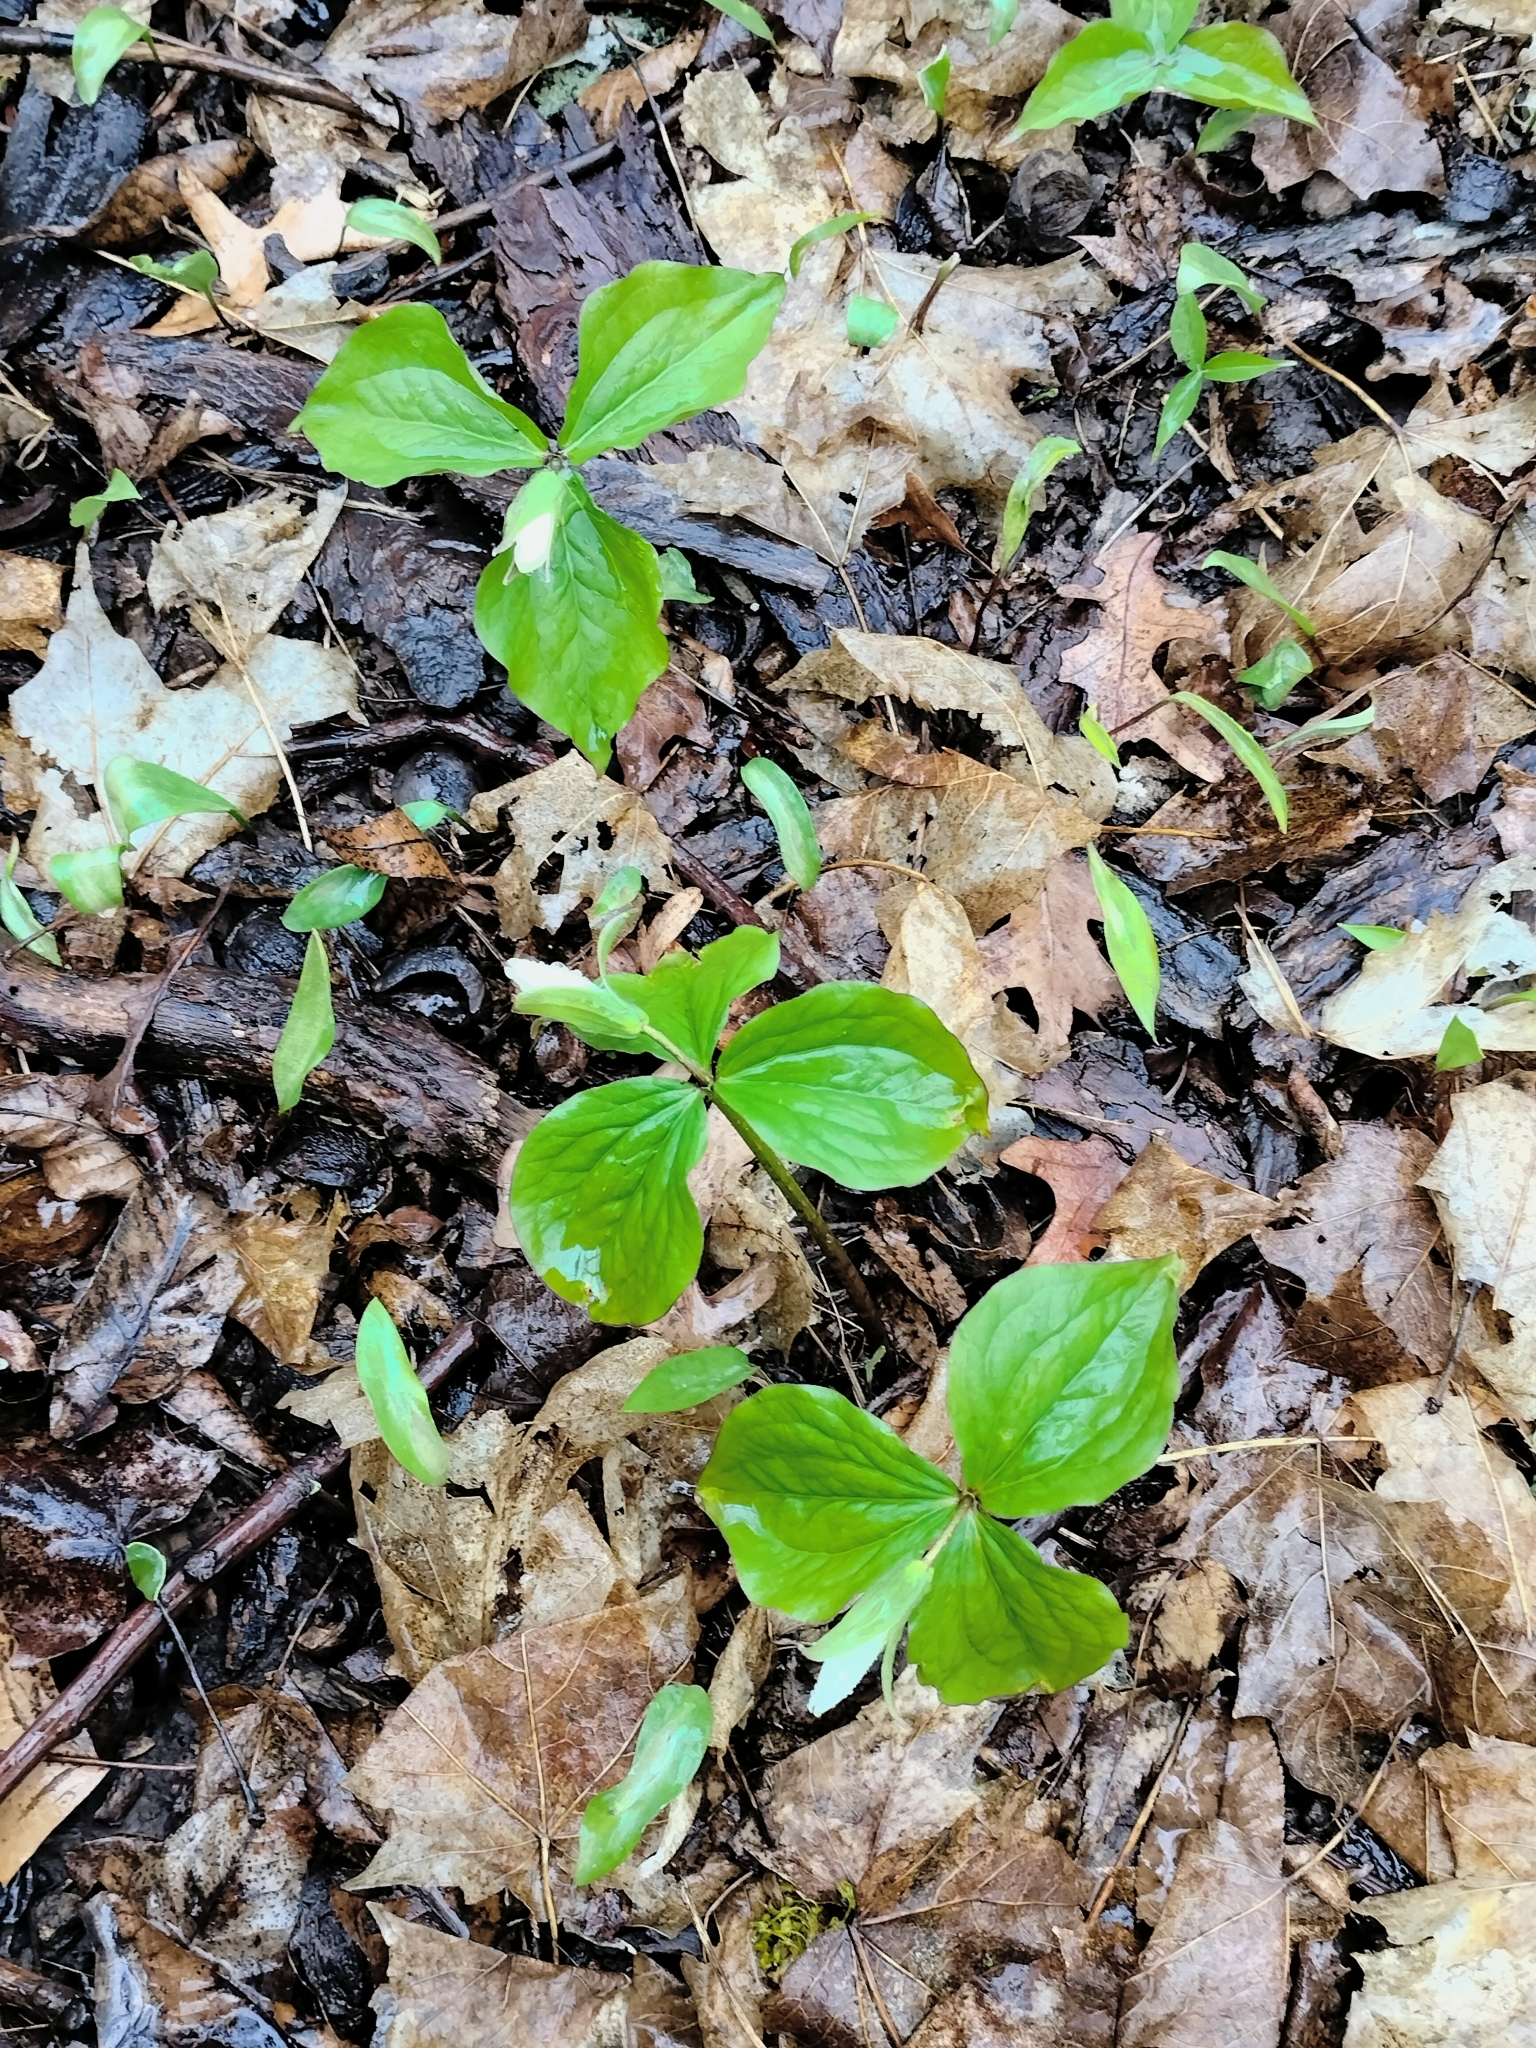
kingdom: Plantae
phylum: Tracheophyta
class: Liliopsida
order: Liliales
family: Melanthiaceae
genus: Trillium
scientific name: Trillium grandiflorum
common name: Great white trillium
